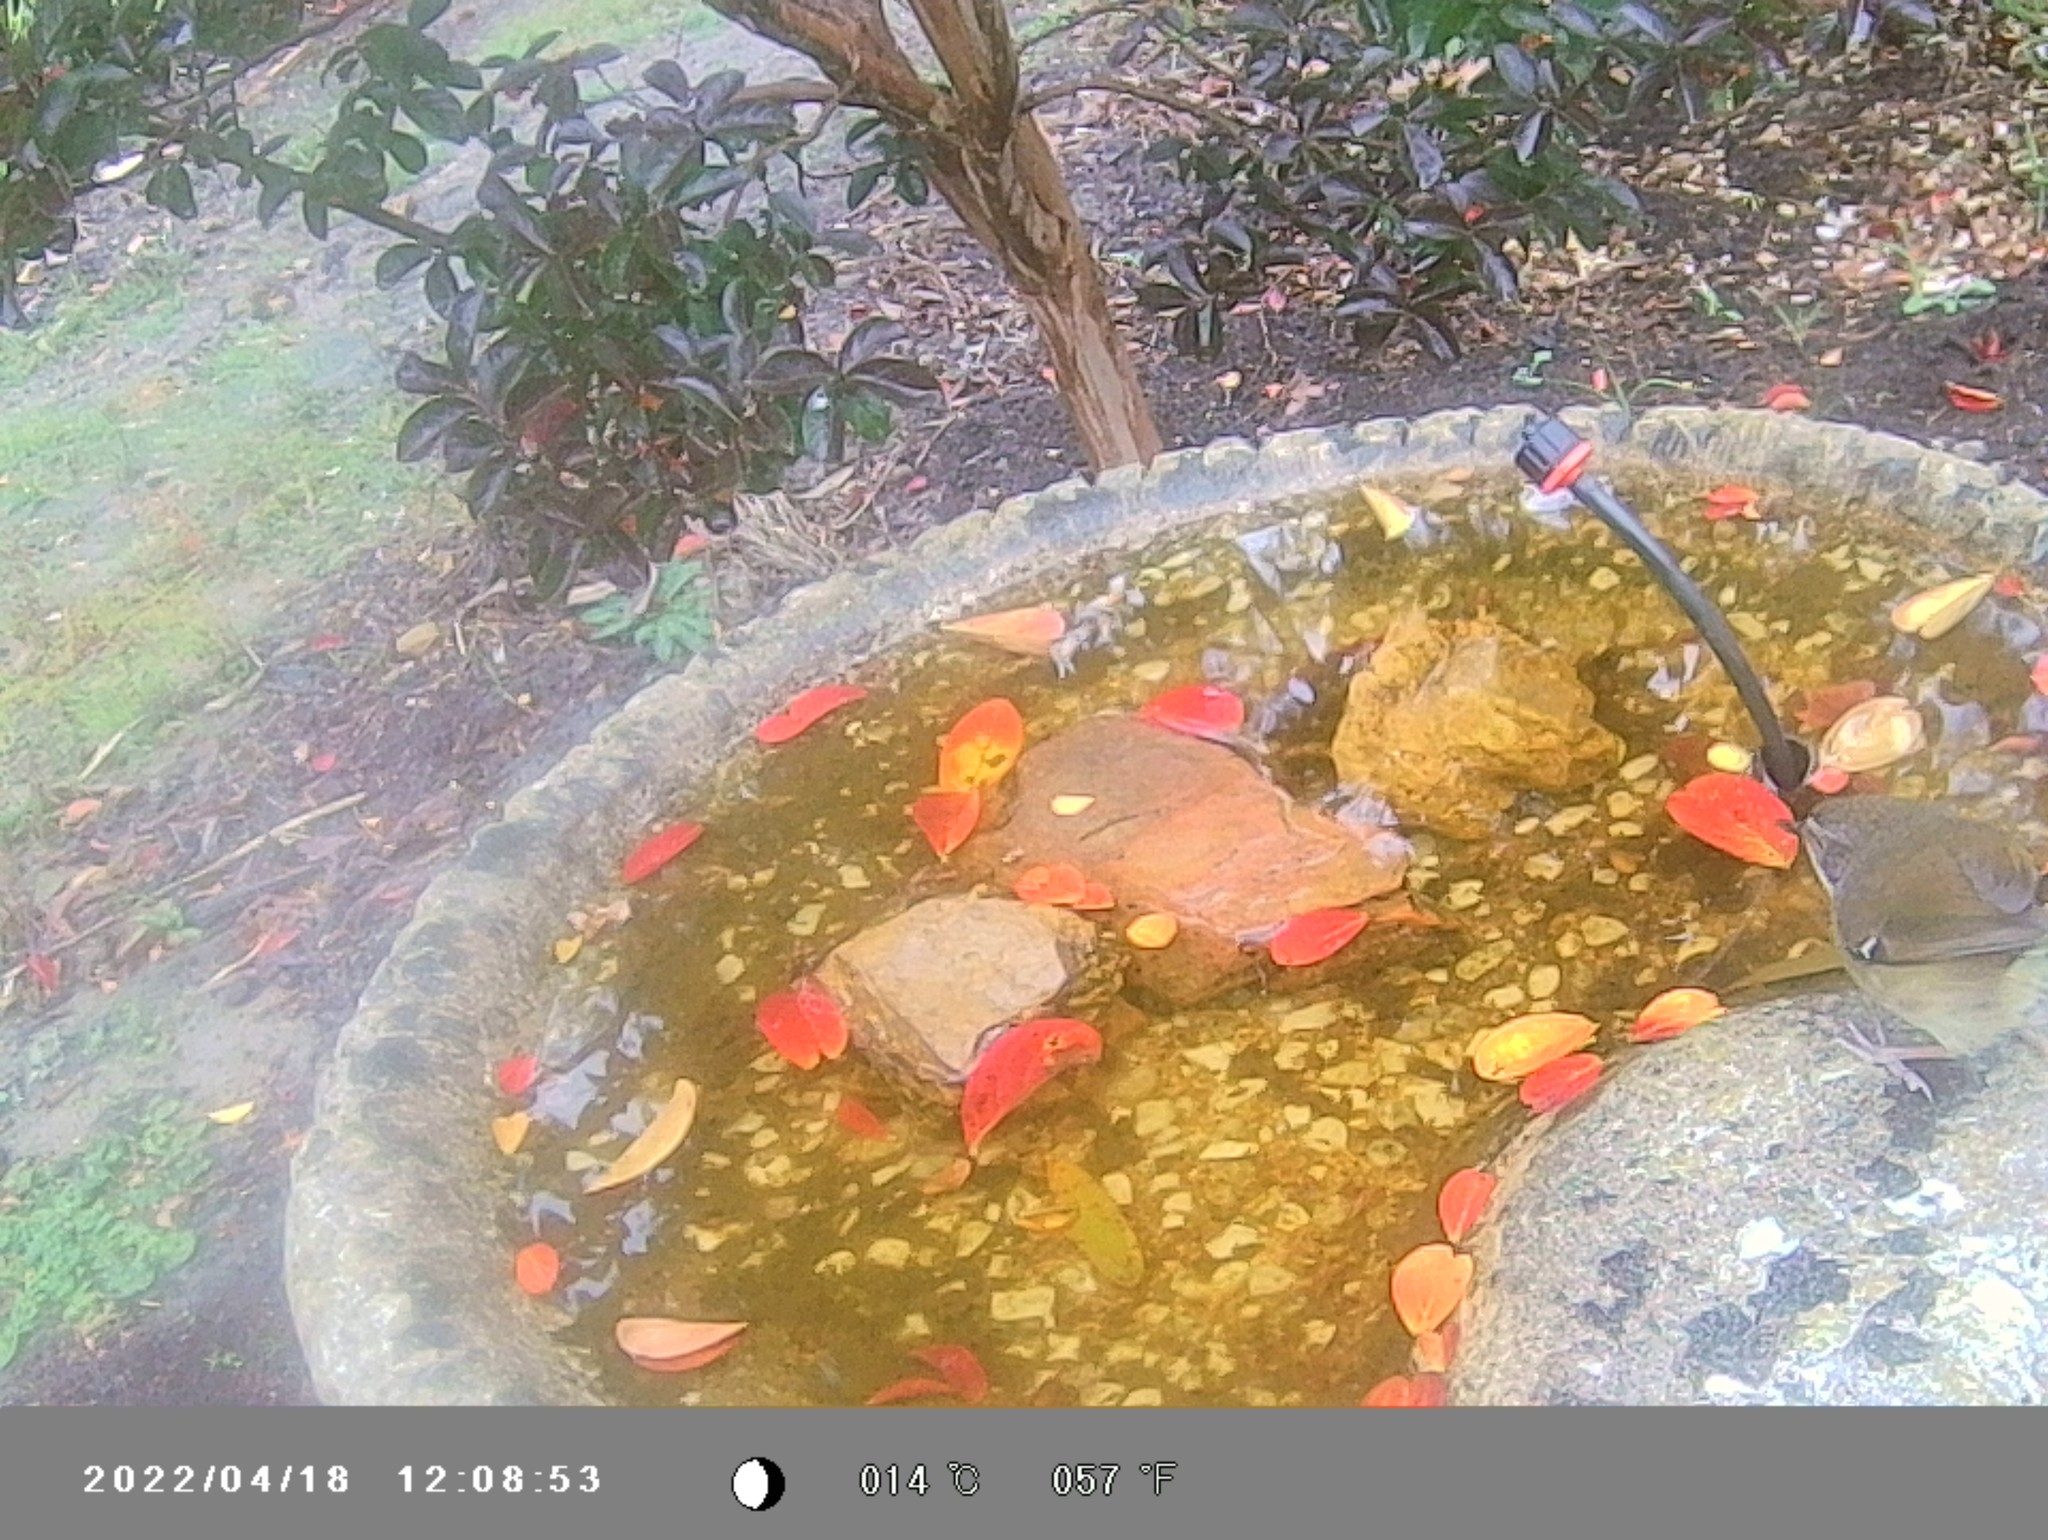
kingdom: Animalia
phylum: Chordata
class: Aves
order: Passeriformes
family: Acanthizidae
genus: Sericornis
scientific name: Sericornis frontalis
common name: White-browed scrubwren
